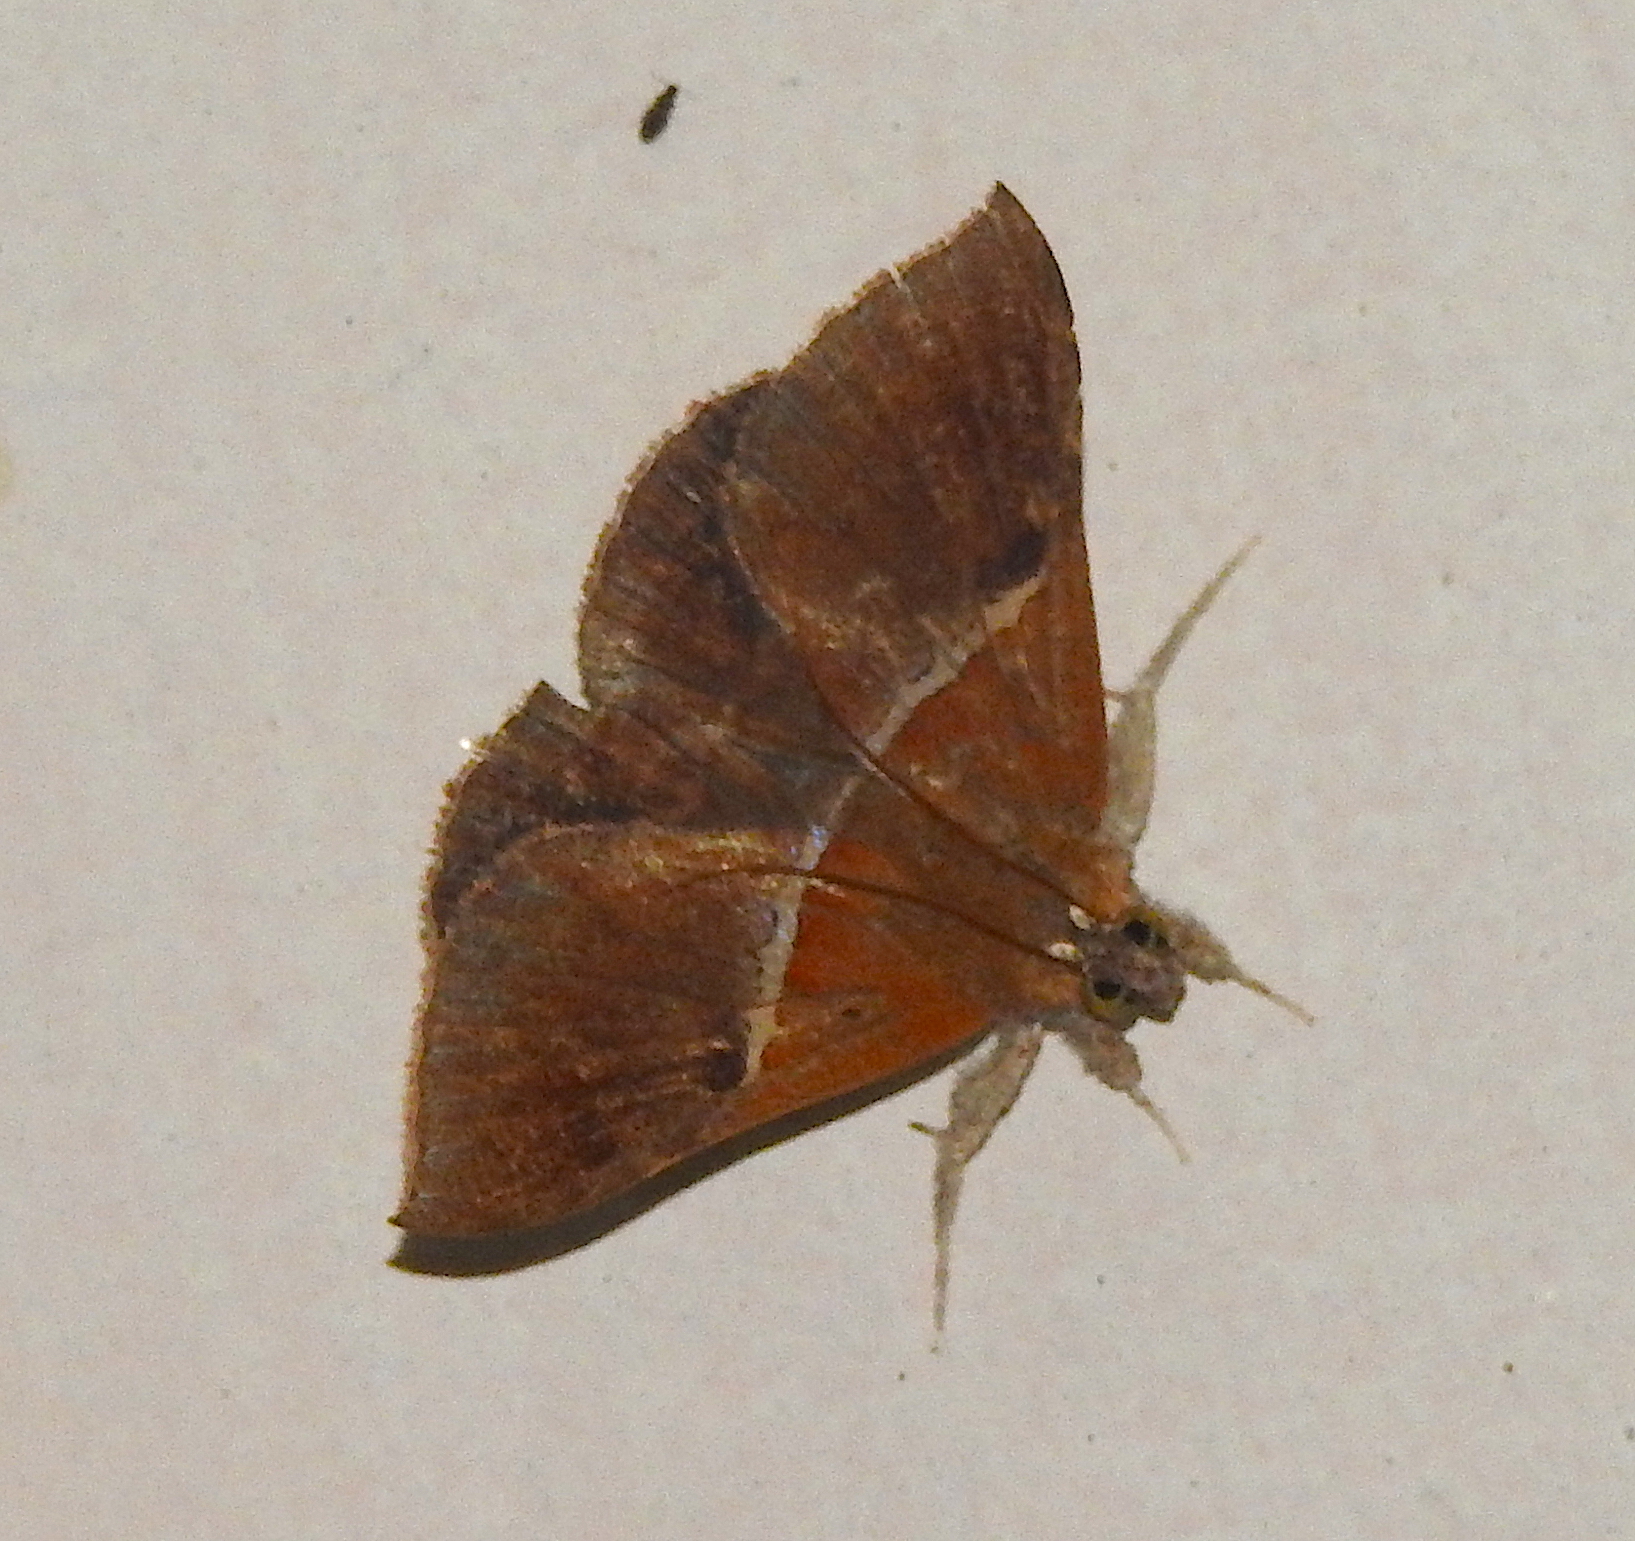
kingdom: Animalia
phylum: Arthropoda
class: Insecta
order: Lepidoptera
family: Erebidae
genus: Sympis
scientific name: Sympis rufibasis
